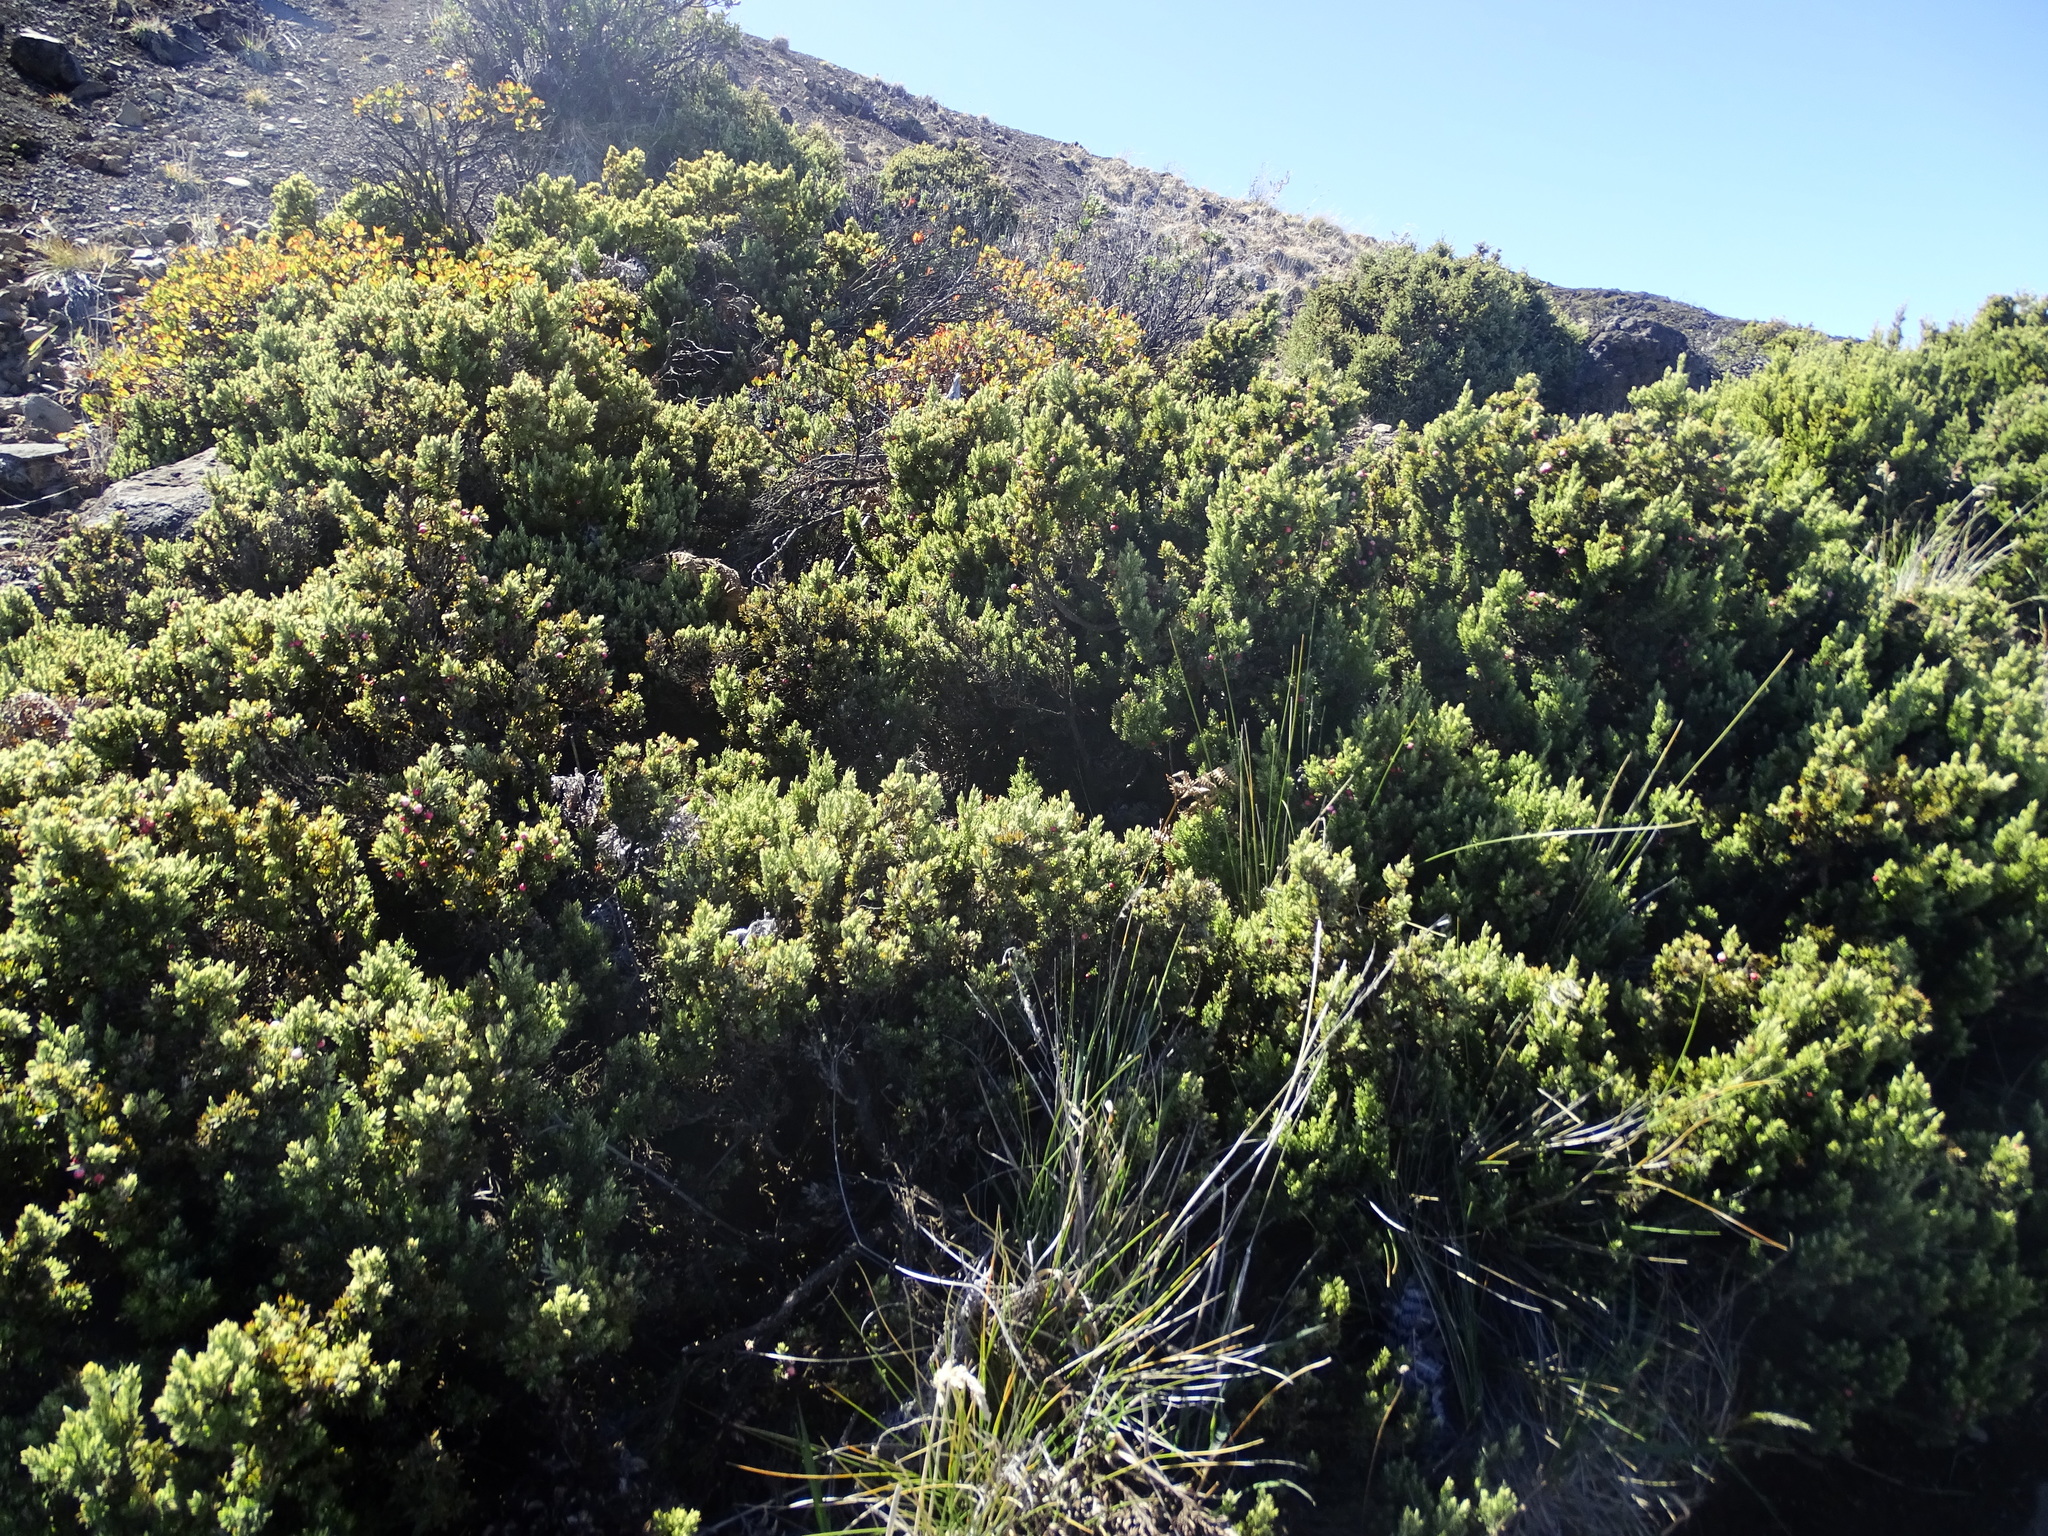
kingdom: Plantae
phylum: Tracheophyta
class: Magnoliopsida
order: Ericales
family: Ericaceae
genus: Leptecophylla
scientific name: Leptecophylla tameiameiae
